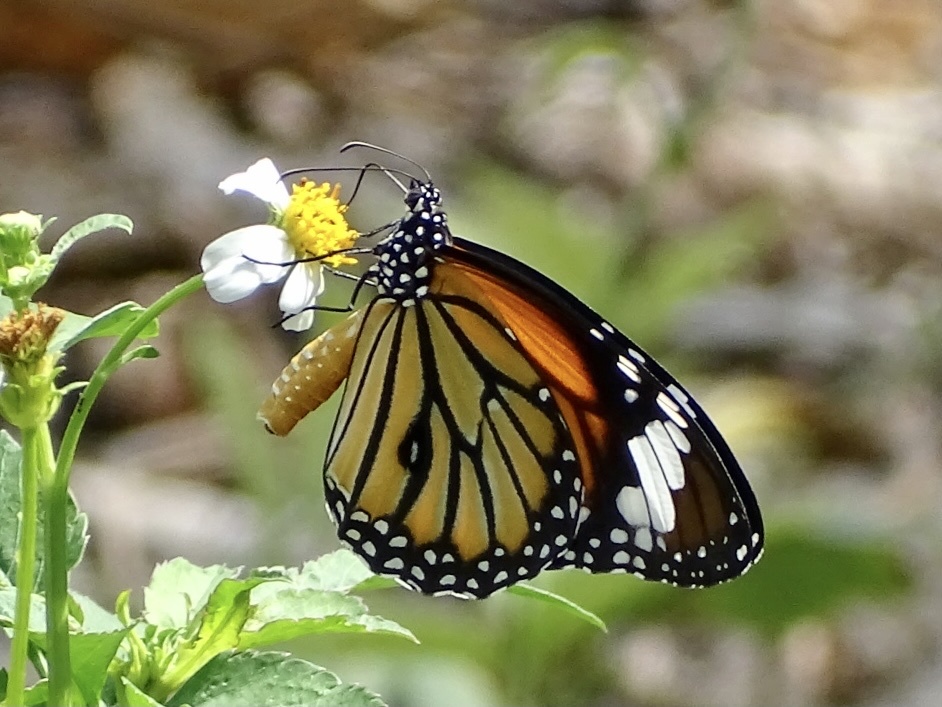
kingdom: Animalia
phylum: Arthropoda
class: Insecta
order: Lepidoptera
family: Nymphalidae
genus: Danaus
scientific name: Danaus genutia
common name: Common tiger butterfly
